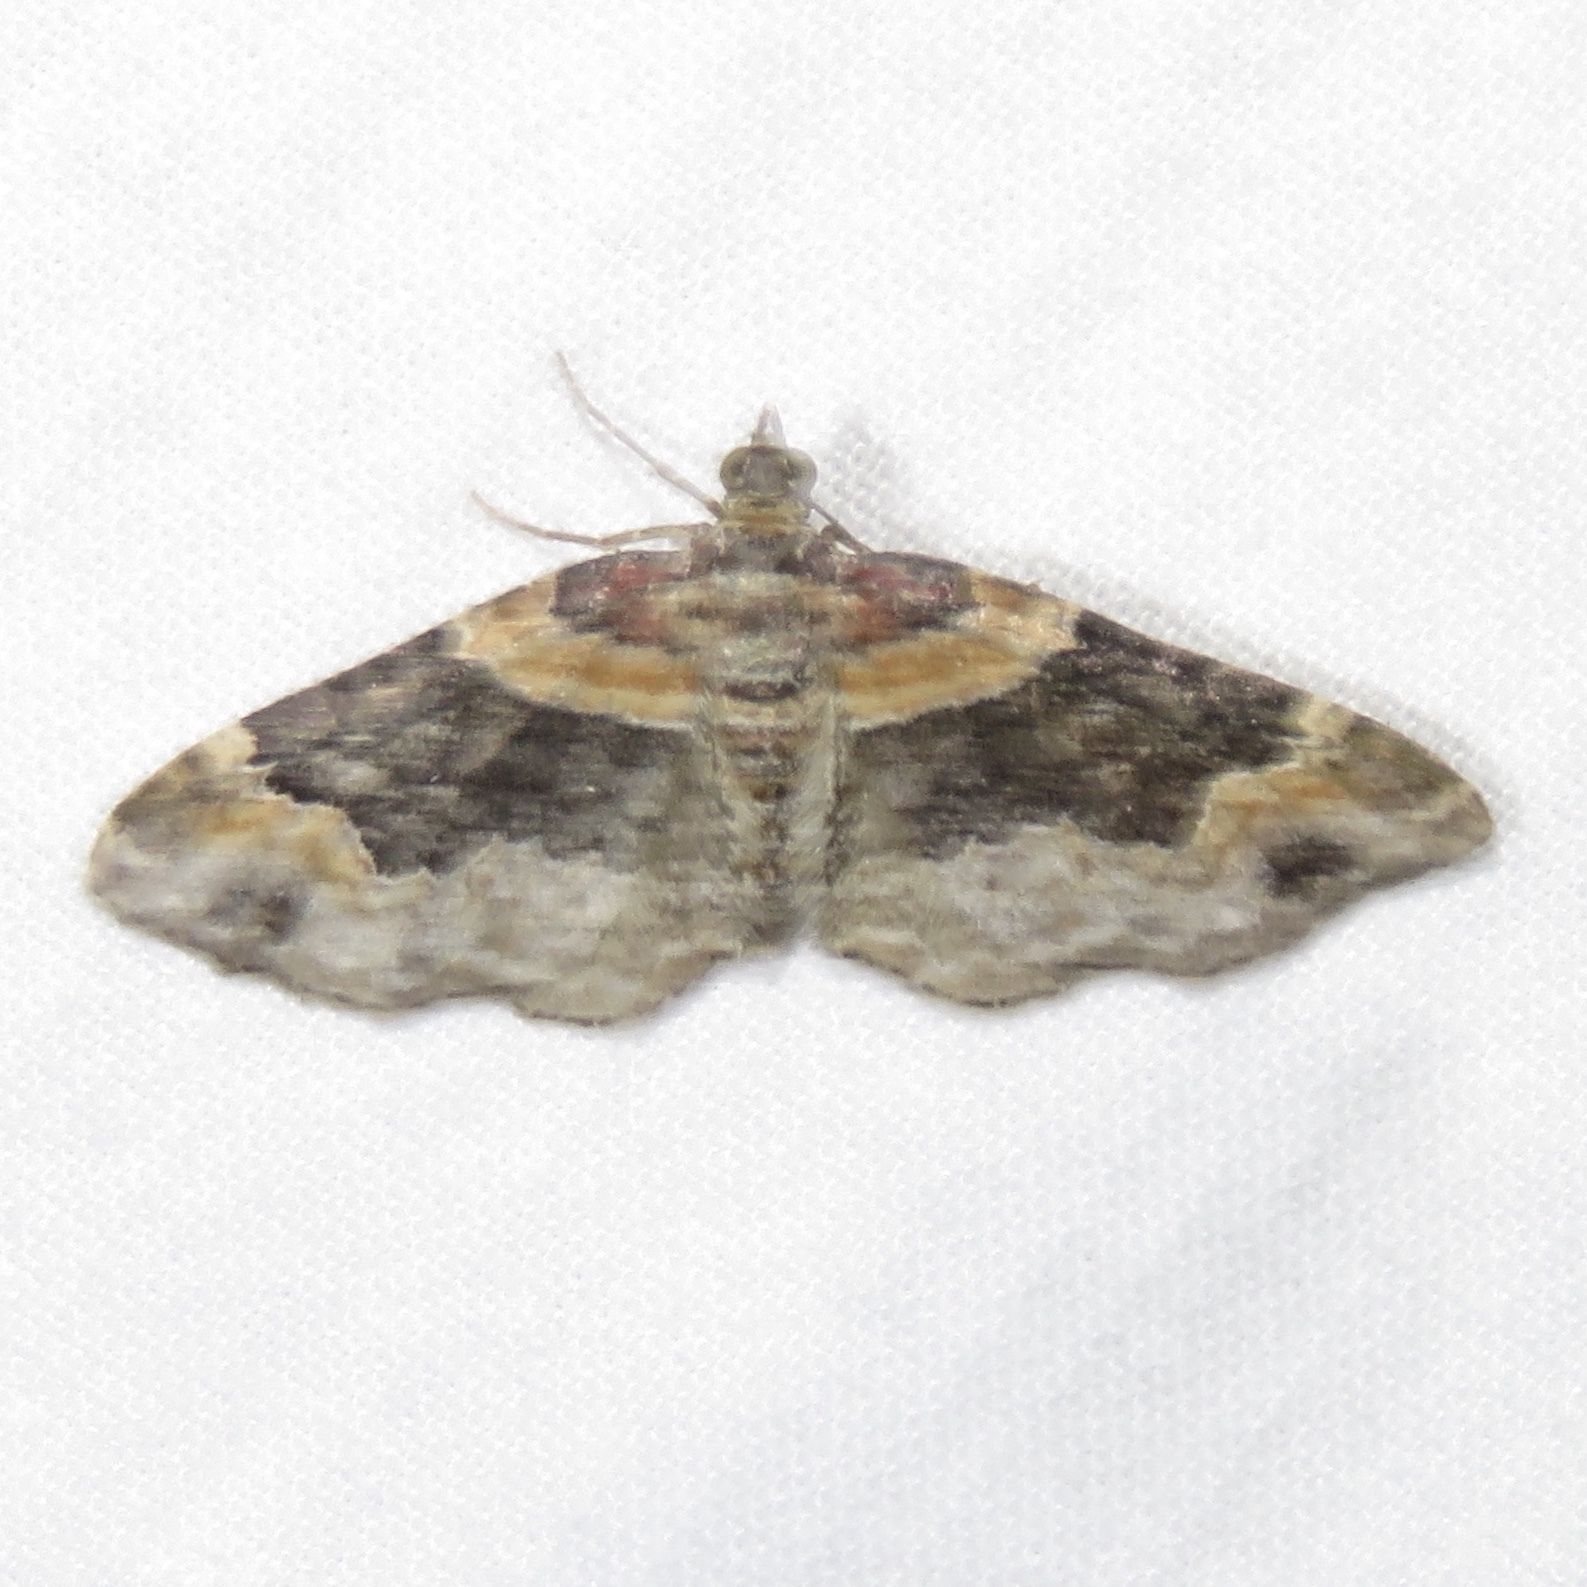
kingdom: Animalia
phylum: Arthropoda
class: Insecta
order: Lepidoptera
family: Geometridae
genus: Xanthorhoe
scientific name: Xanthorhoe ferrugata
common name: Dark-barred twin-spot carpet
